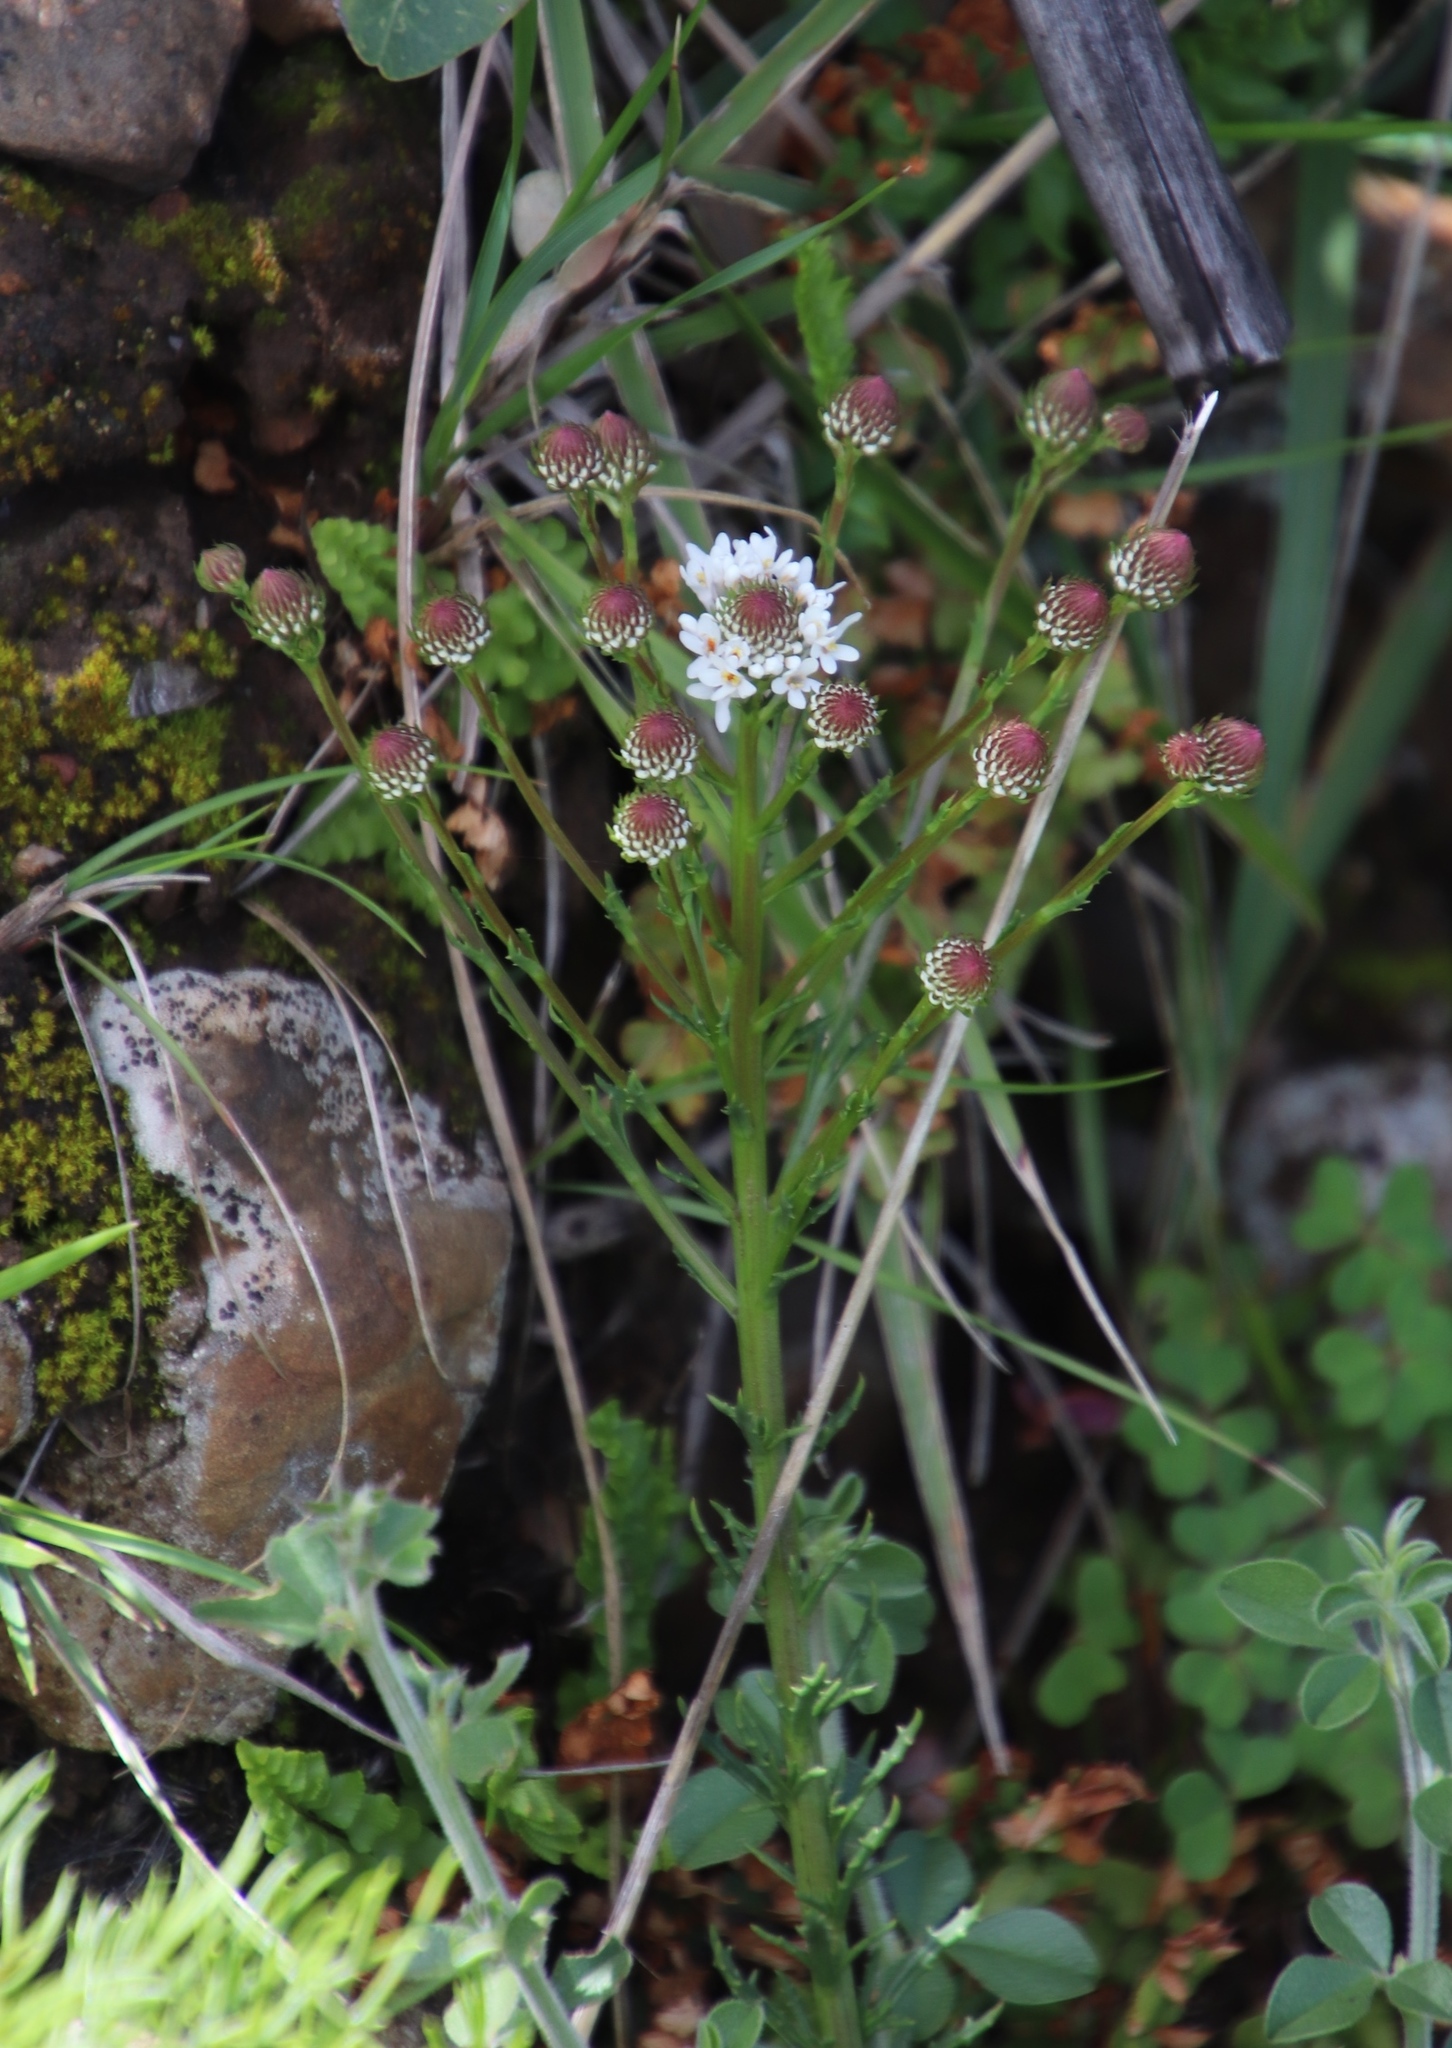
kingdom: Plantae
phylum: Tracheophyta
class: Magnoliopsida
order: Lamiales
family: Scrophulariaceae
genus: Pseudoselago
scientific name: Pseudoselago spuria
